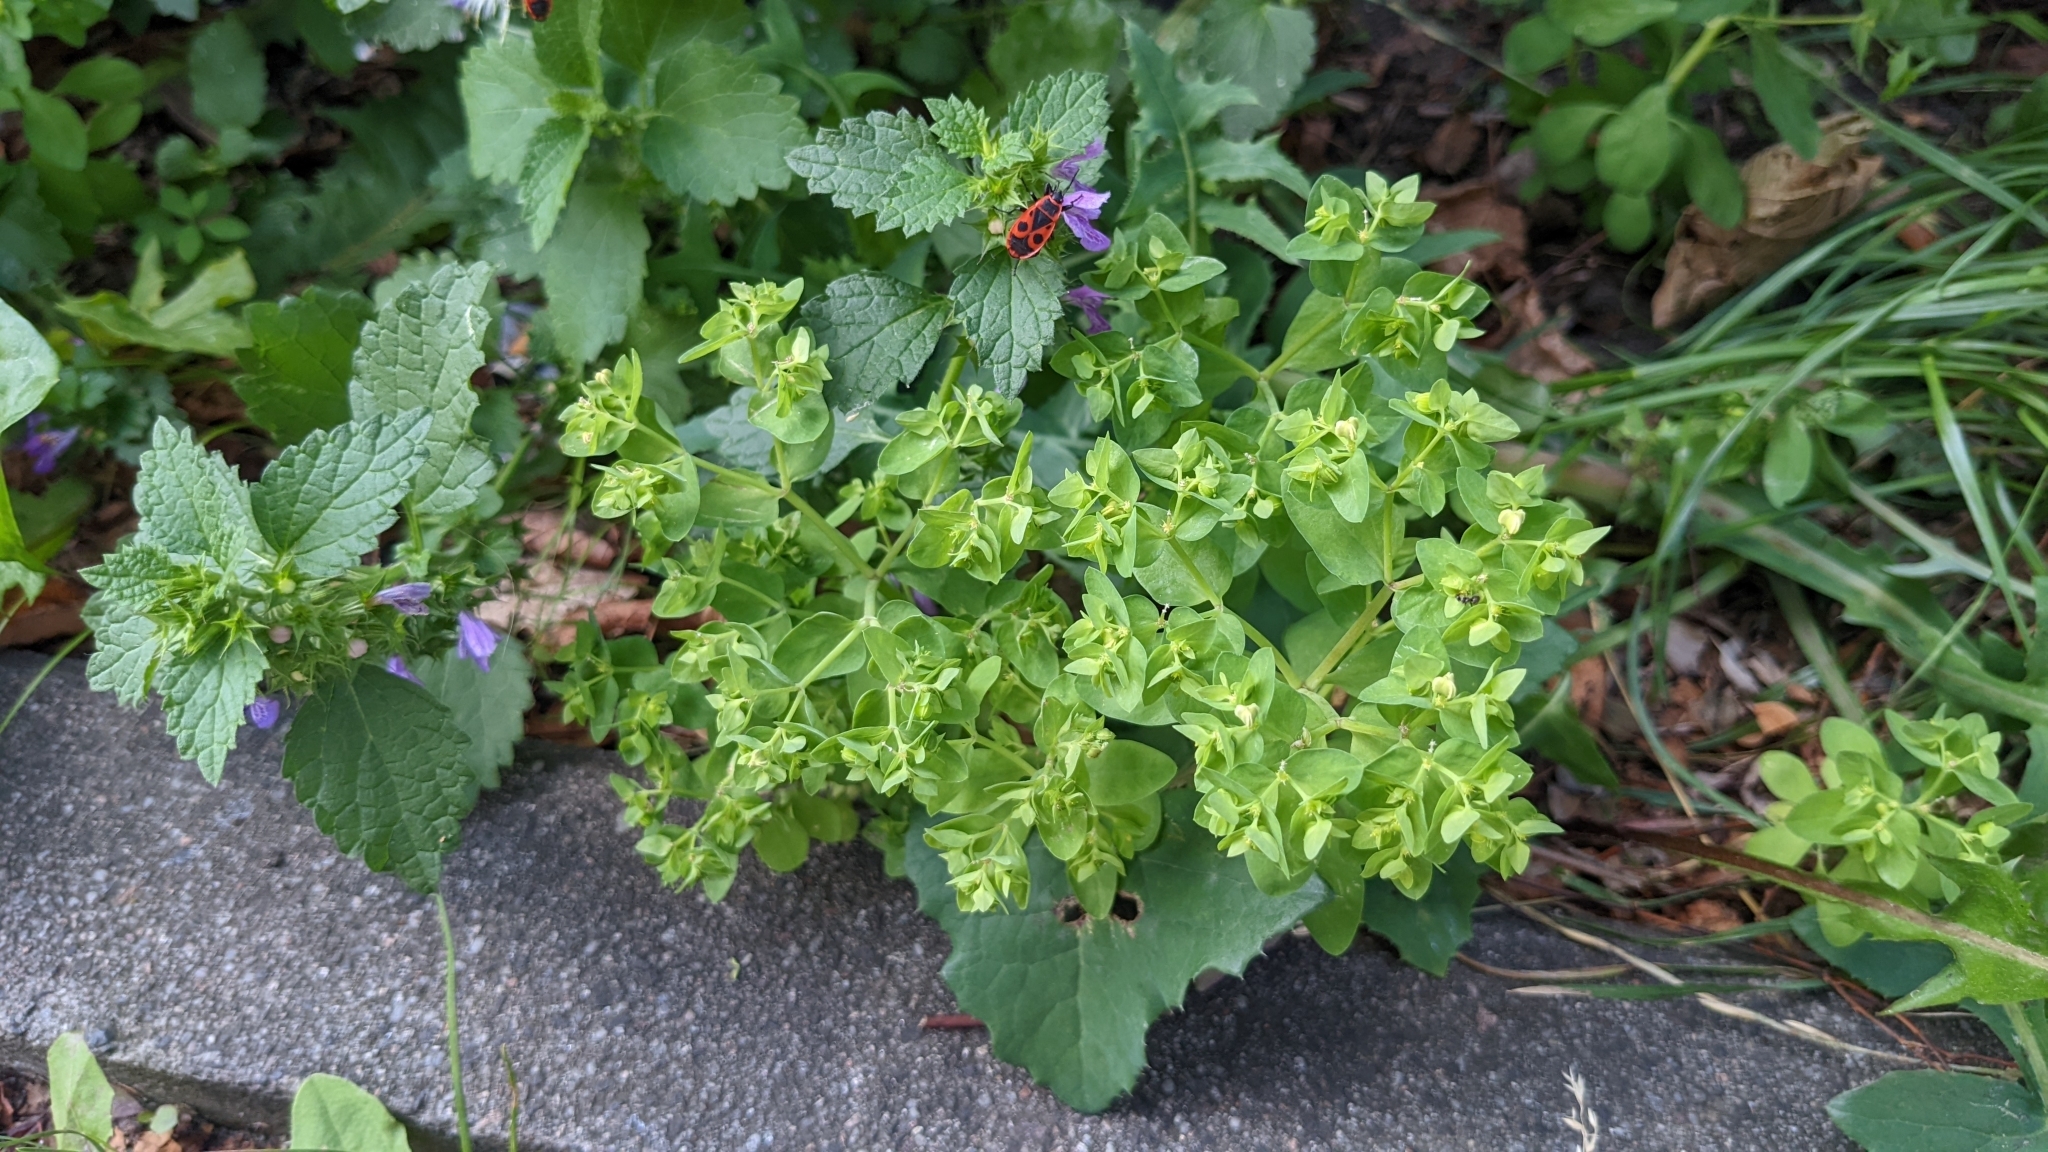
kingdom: Plantae
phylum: Tracheophyta
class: Magnoliopsida
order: Malpighiales
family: Euphorbiaceae
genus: Euphorbia
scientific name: Euphorbia peplus
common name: Petty spurge
